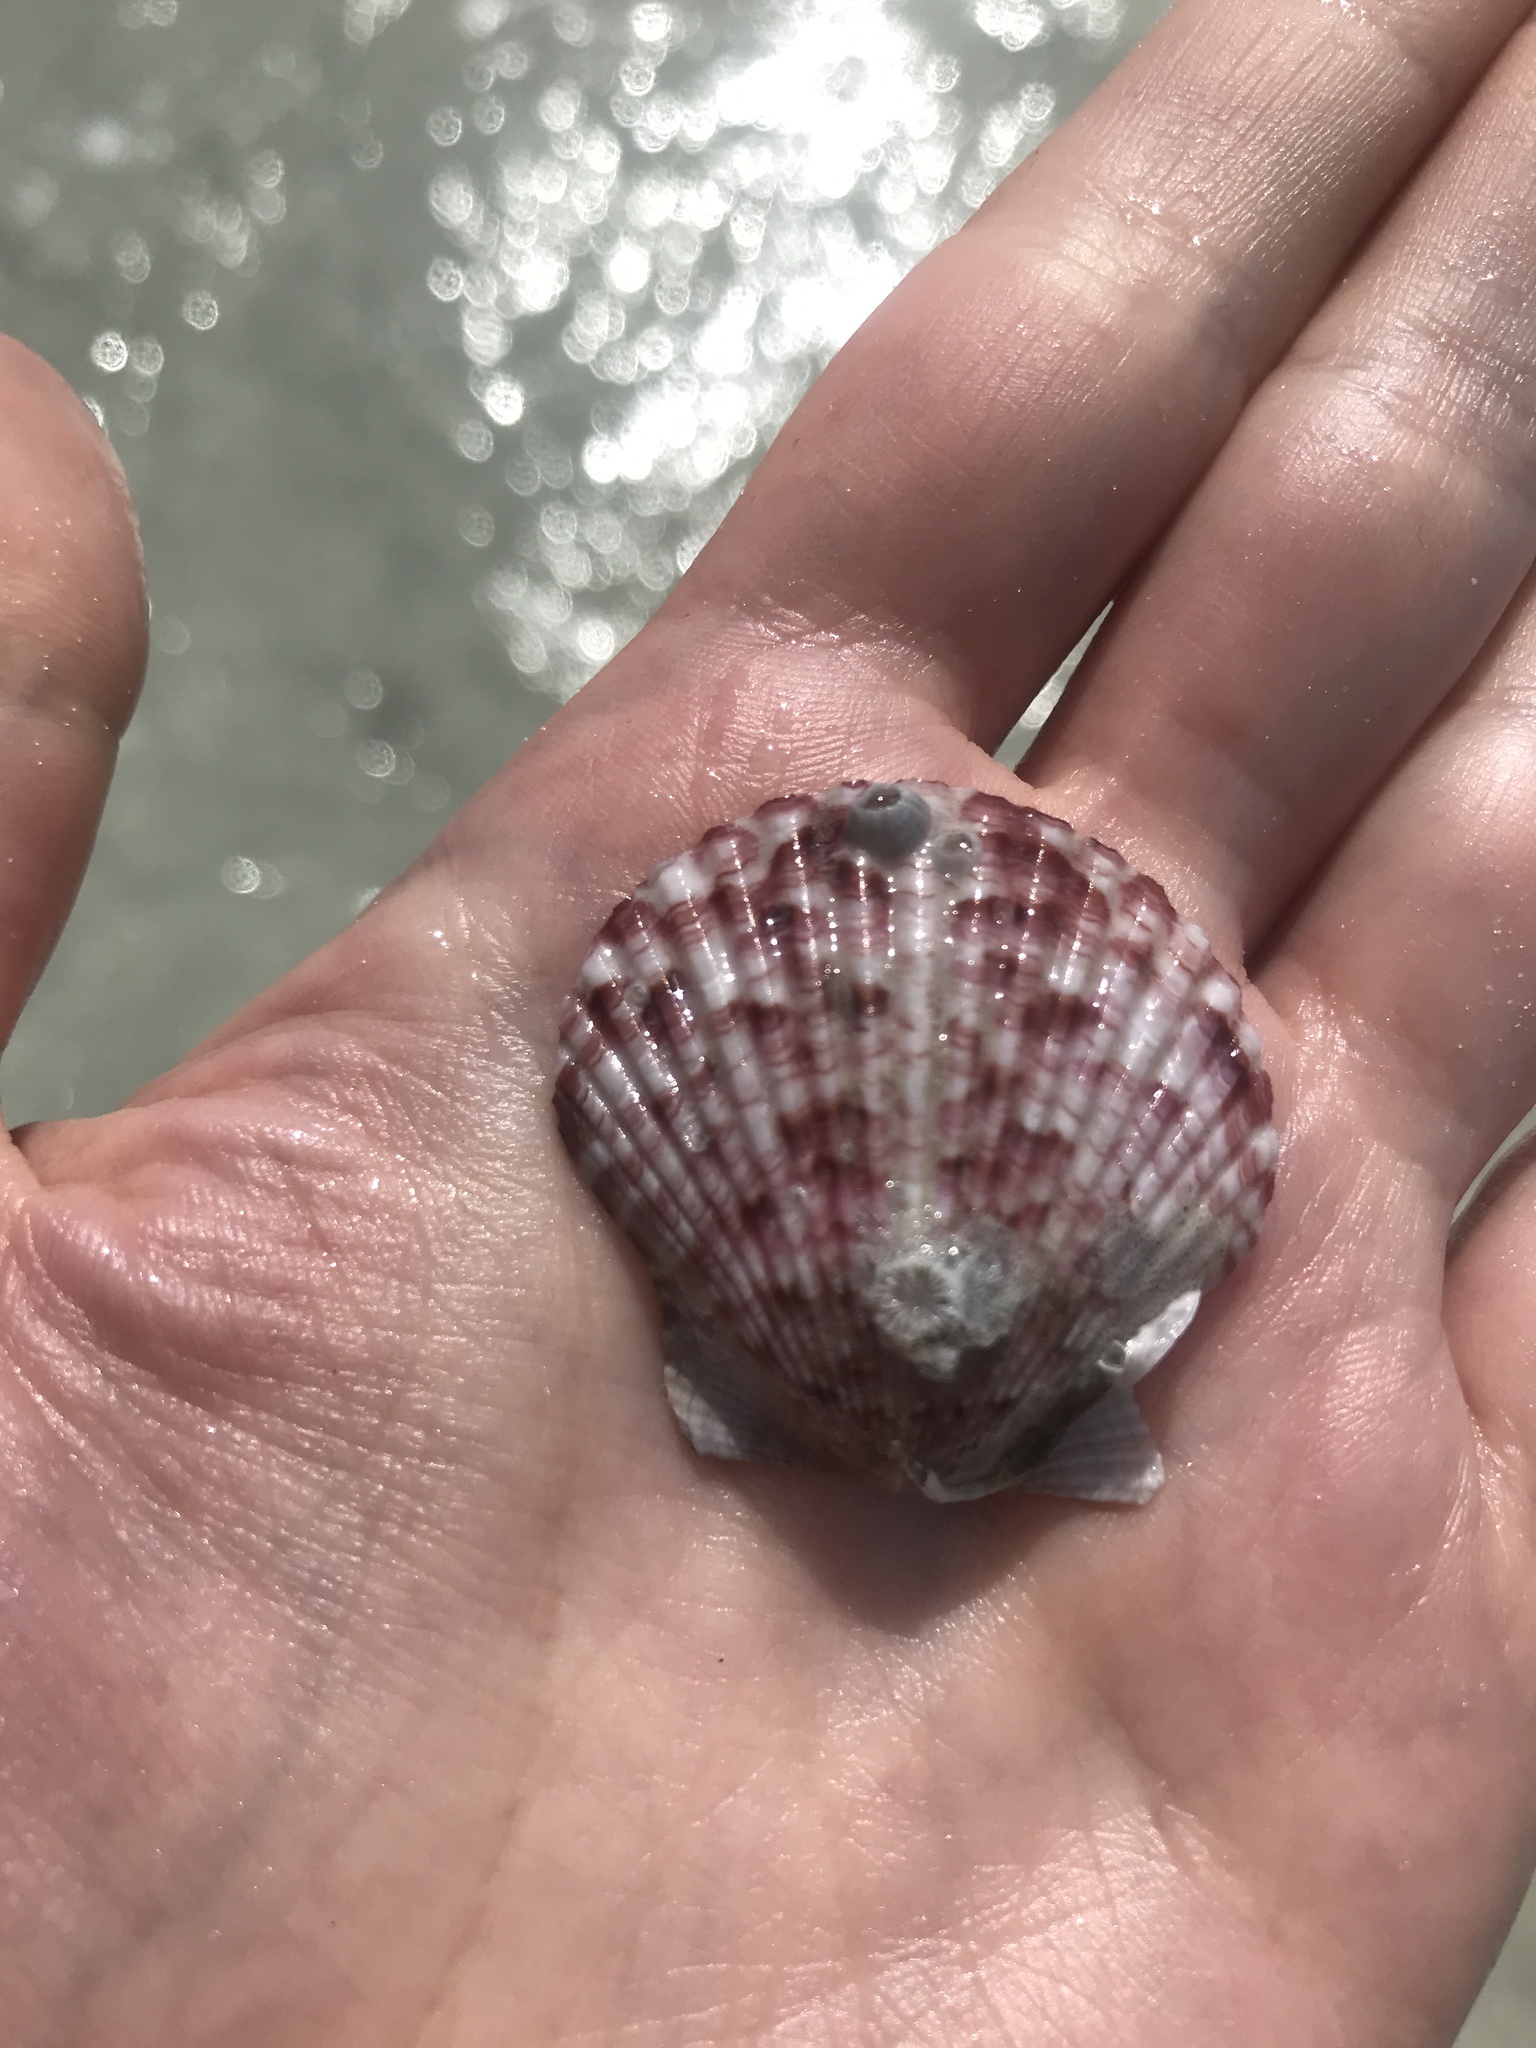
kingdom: Animalia
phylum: Mollusca
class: Bivalvia
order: Pectinida
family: Pectinidae
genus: Argopecten
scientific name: Argopecten gibbus
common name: Atlantic calico scallop
